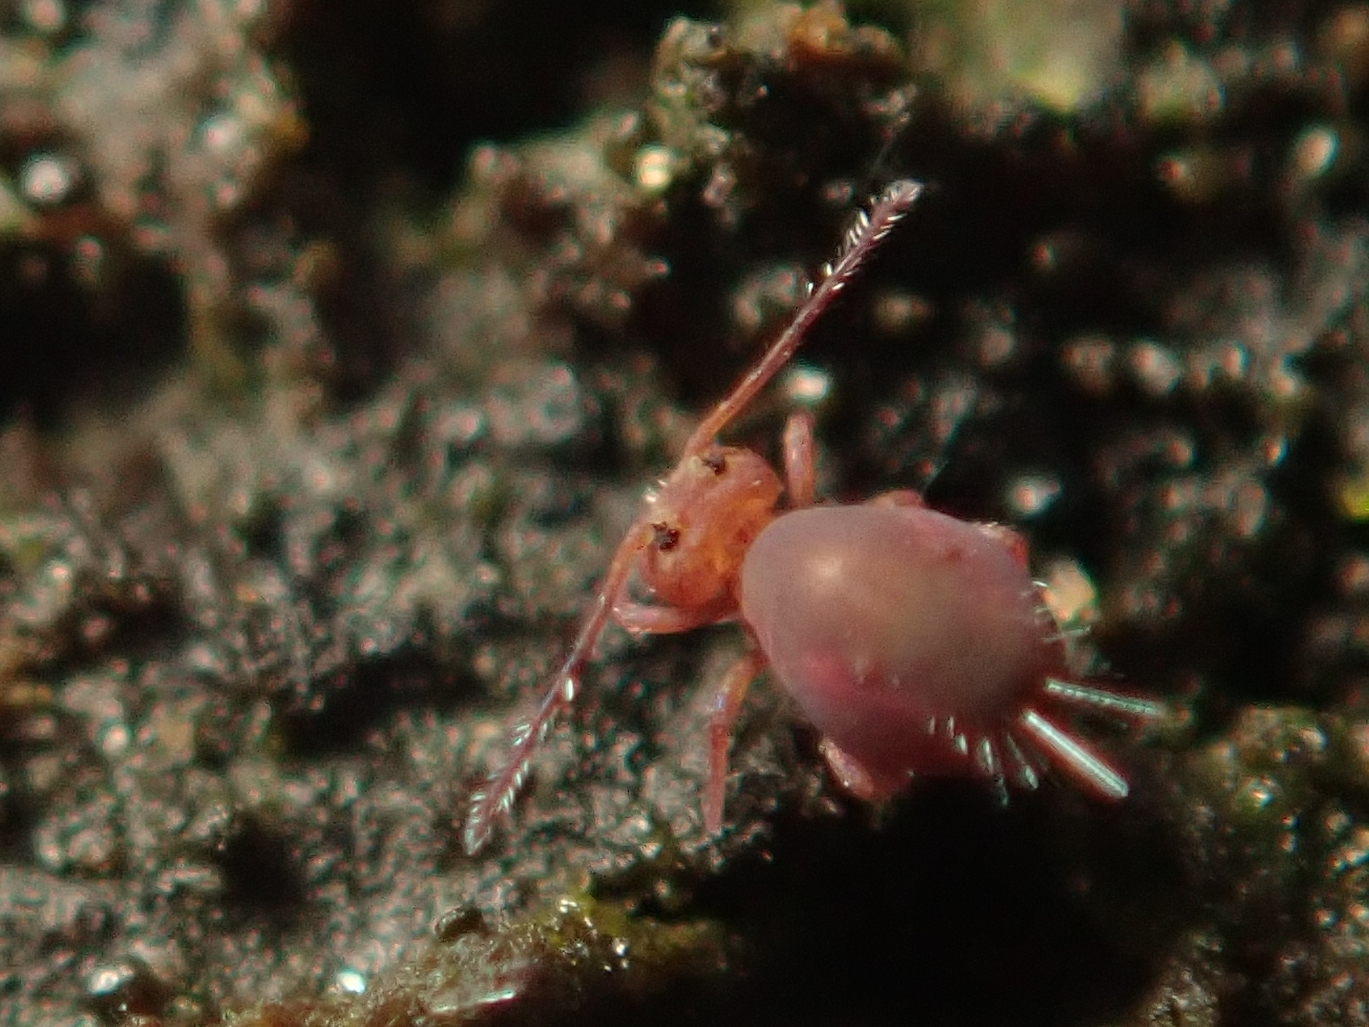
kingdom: Animalia
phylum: Arthropoda
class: Collembola
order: Symphypleona
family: Dicyrtomidae
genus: Dicyrtoma
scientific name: Dicyrtoma fusca
